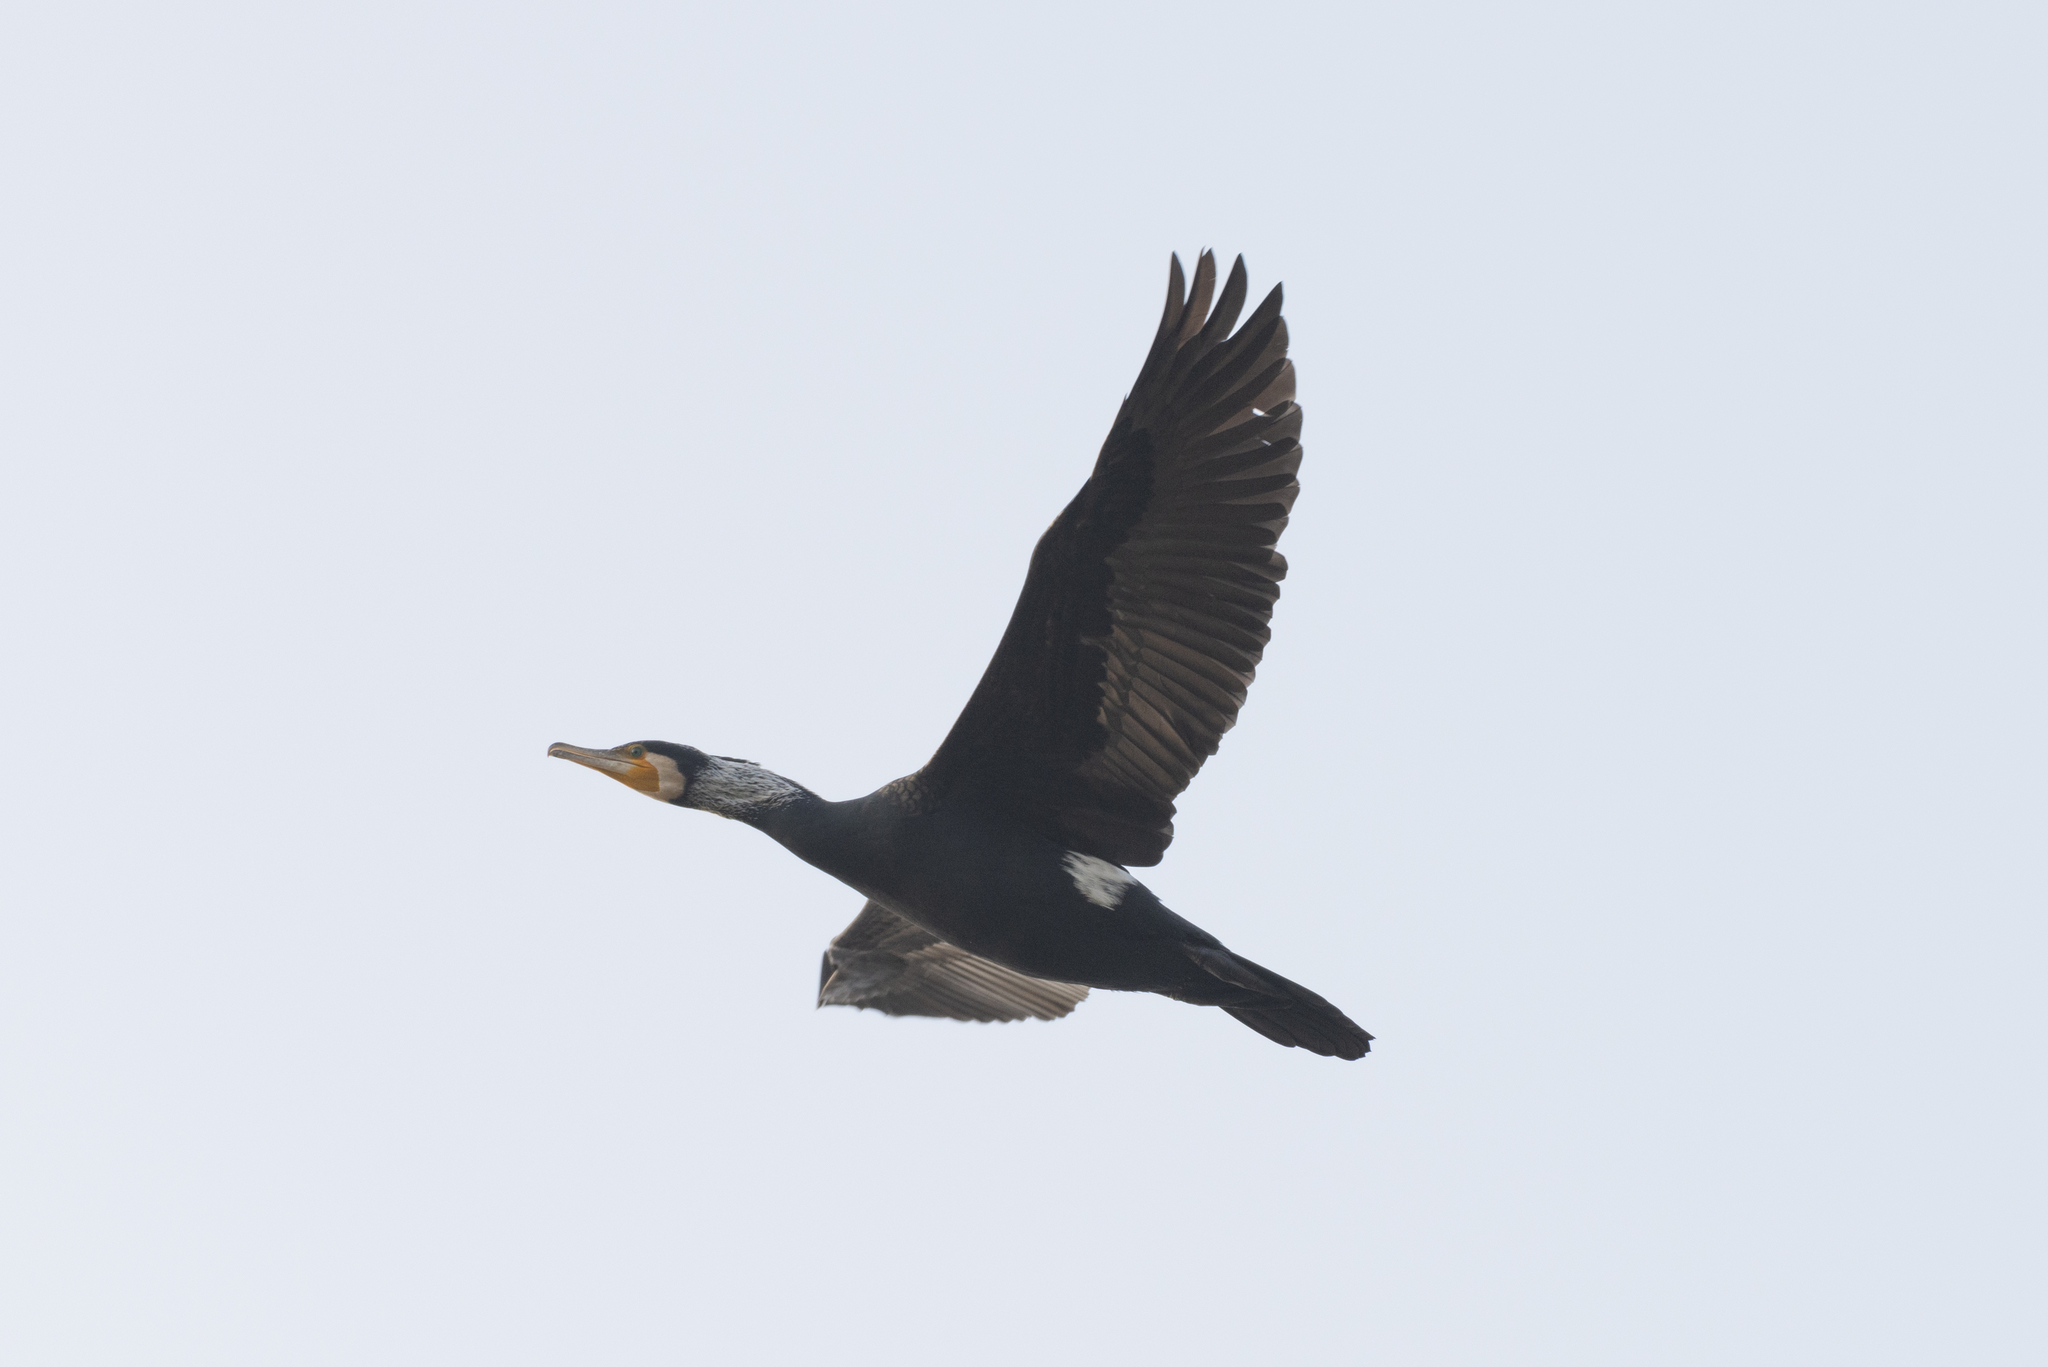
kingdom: Animalia
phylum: Chordata
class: Aves
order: Suliformes
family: Phalacrocoracidae
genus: Phalacrocorax
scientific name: Phalacrocorax carbo
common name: Great cormorant
